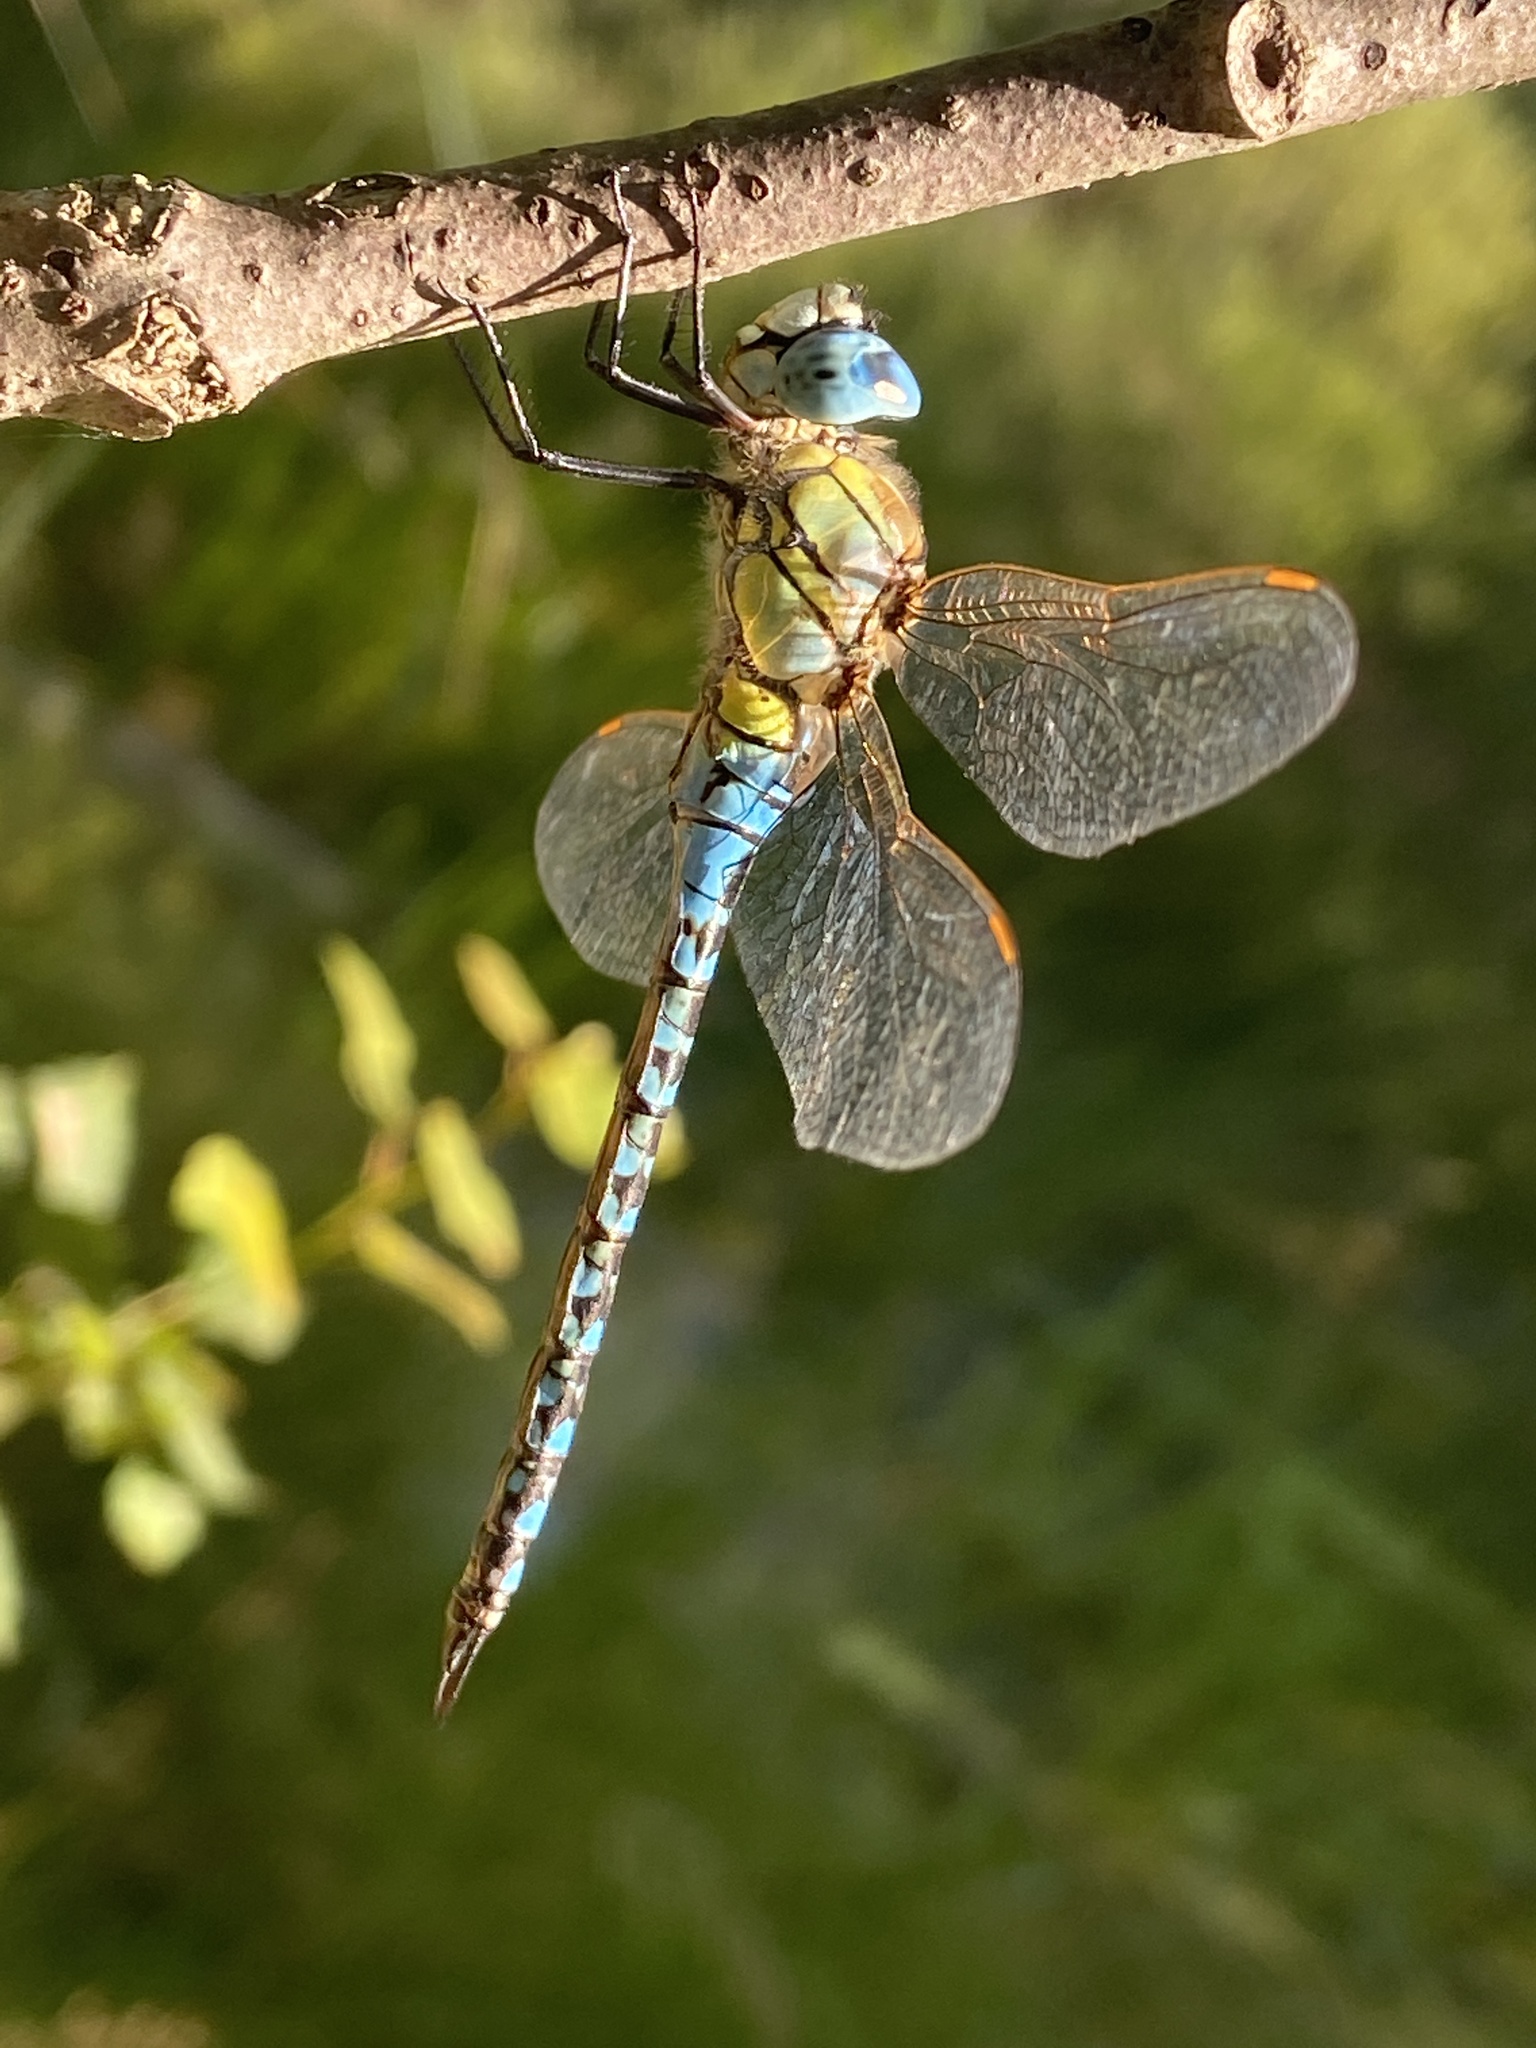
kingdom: Animalia
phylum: Arthropoda
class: Insecta
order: Odonata
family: Aeshnidae
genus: Aeshna
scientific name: Aeshna affinis
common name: Southern migrant hawker
